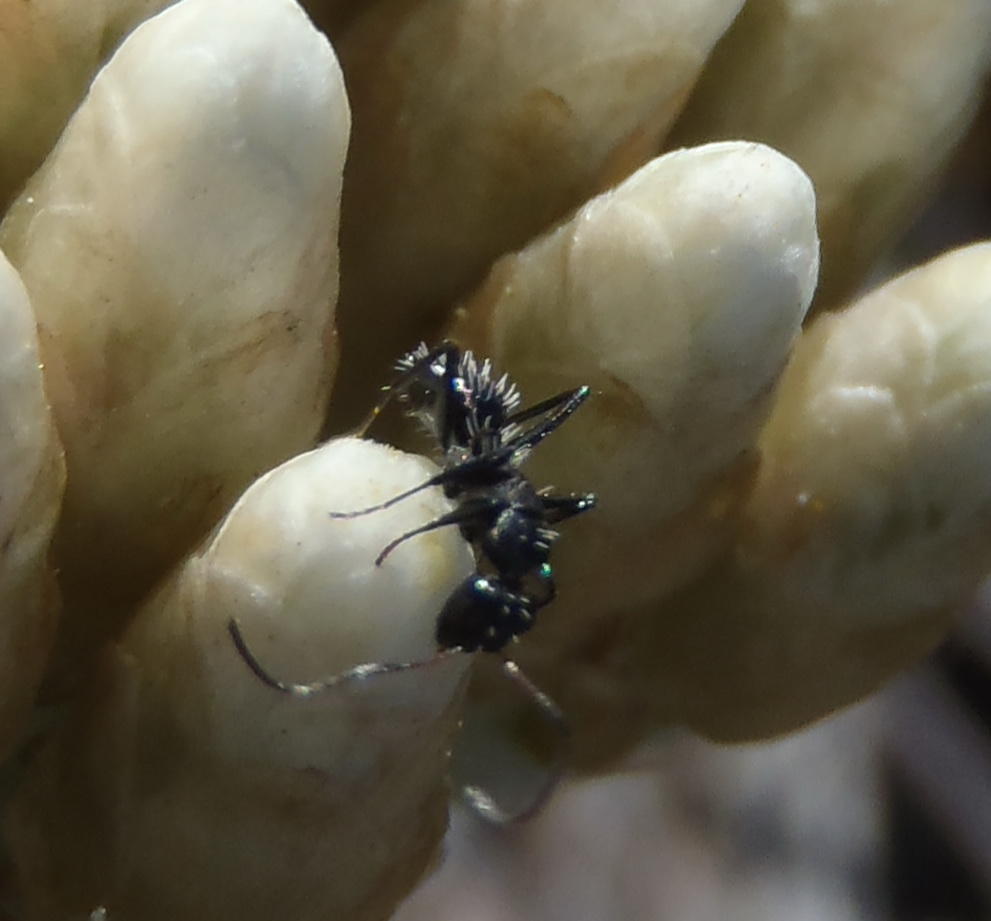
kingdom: Animalia
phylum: Arthropoda
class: Insecta
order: Hymenoptera
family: Formicidae
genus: Camponotus
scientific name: Camponotus niveosetosus
